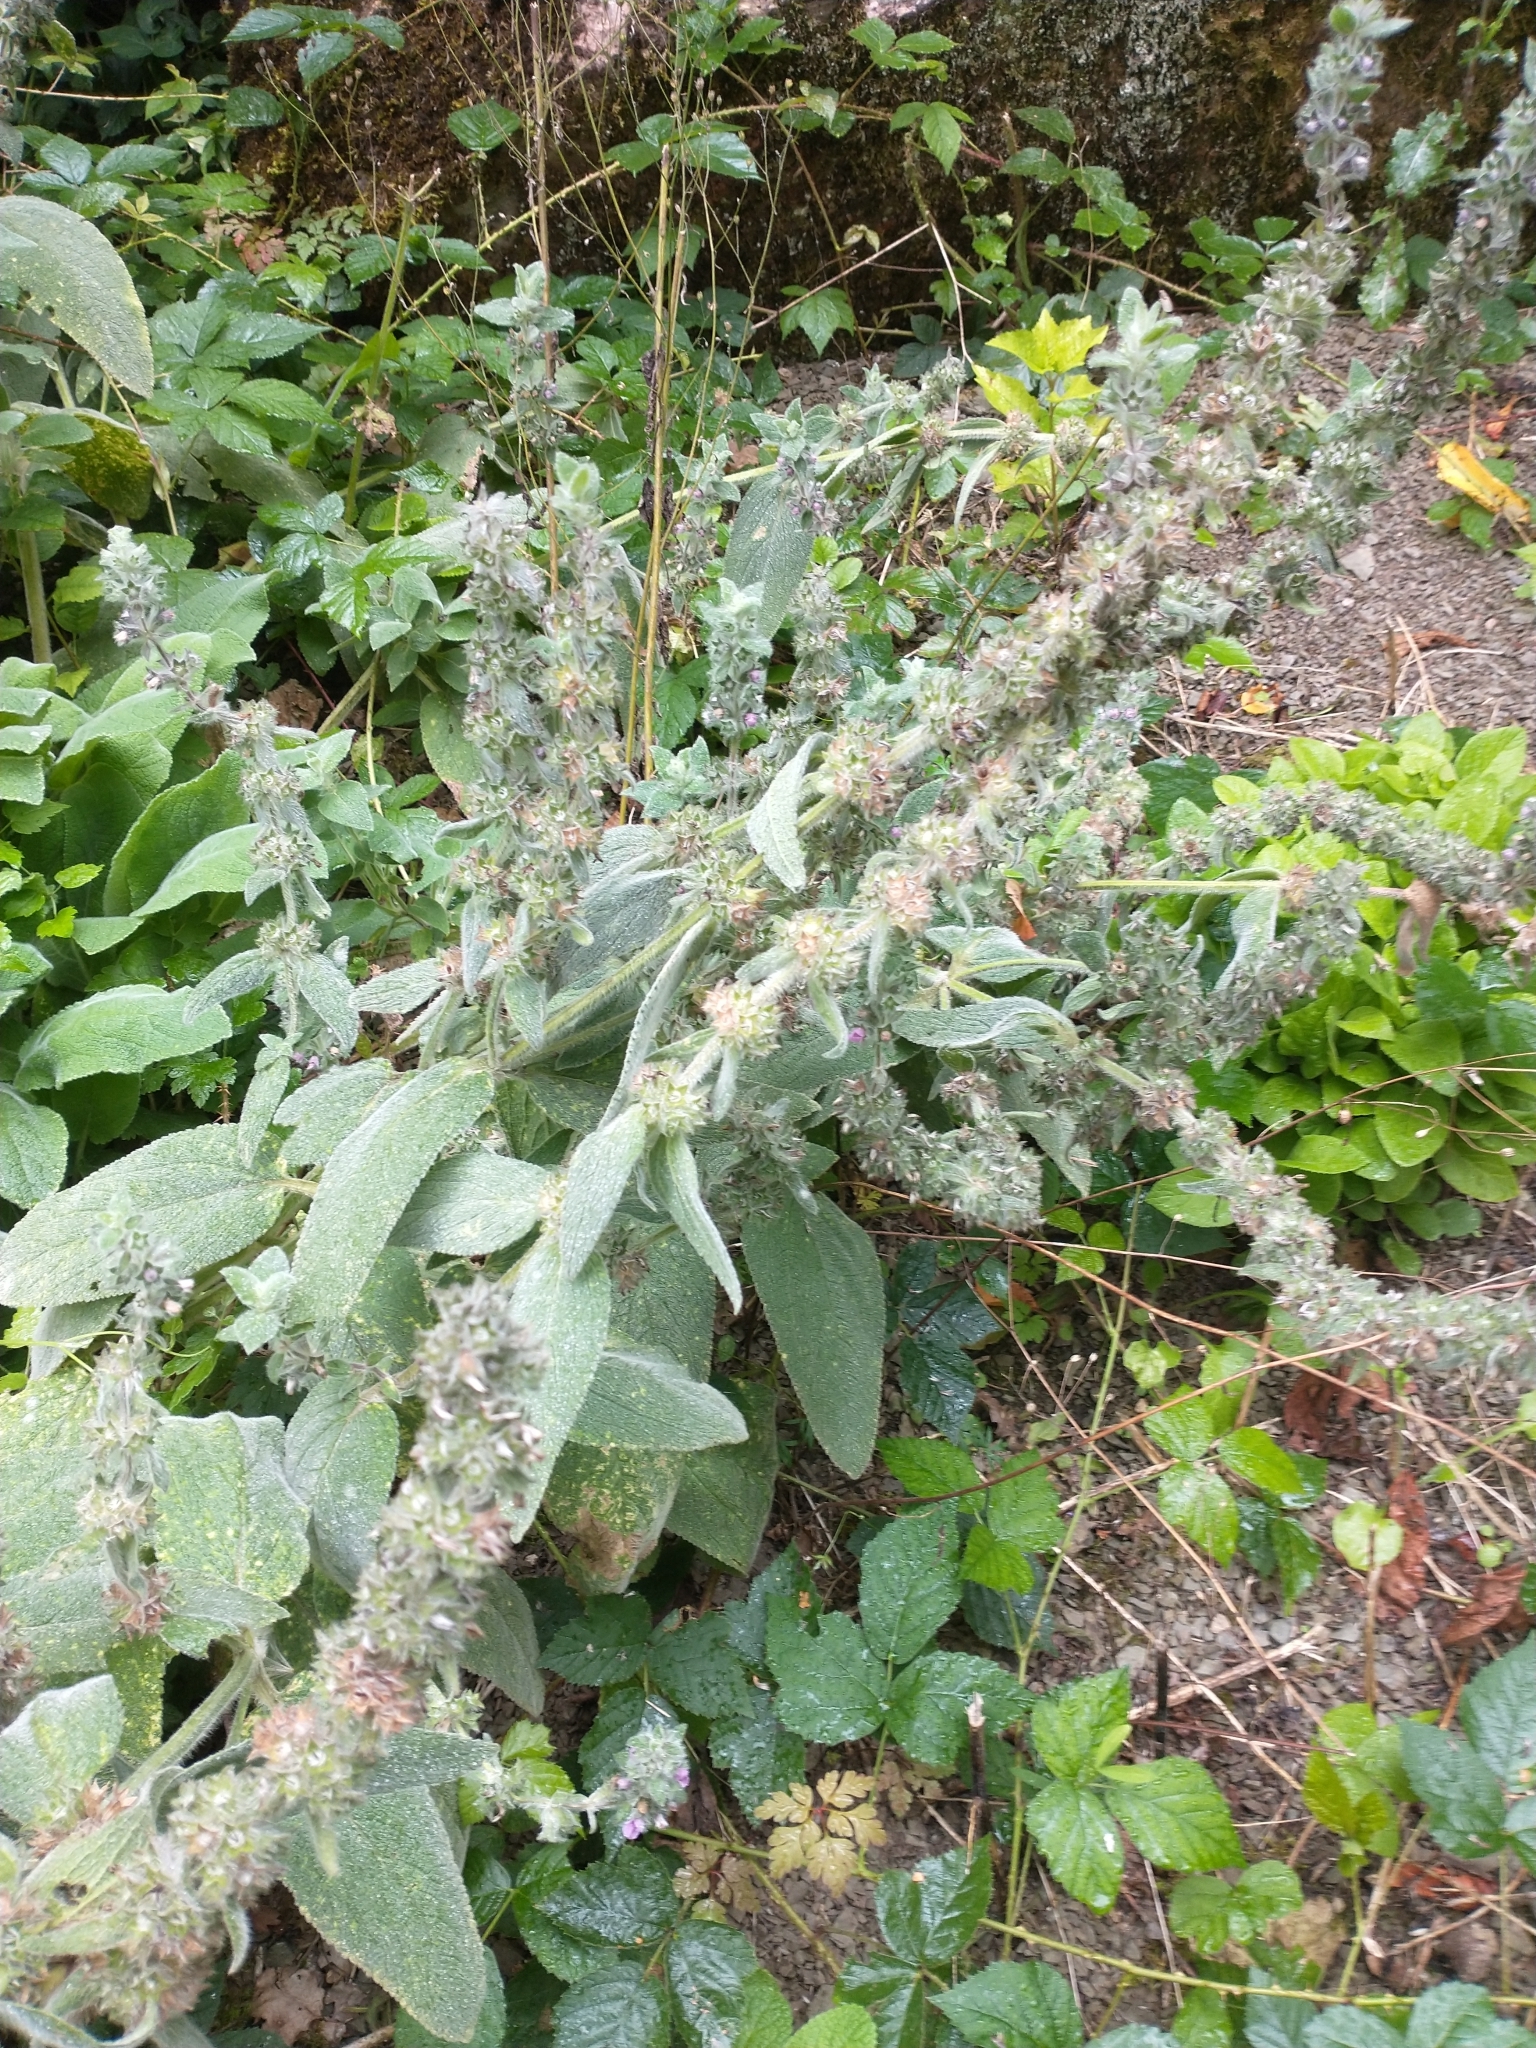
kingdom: Plantae
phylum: Tracheophyta
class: Magnoliopsida
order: Lamiales
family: Lamiaceae
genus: Stachys
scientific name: Stachys byzantina
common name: Lamb's-ear
